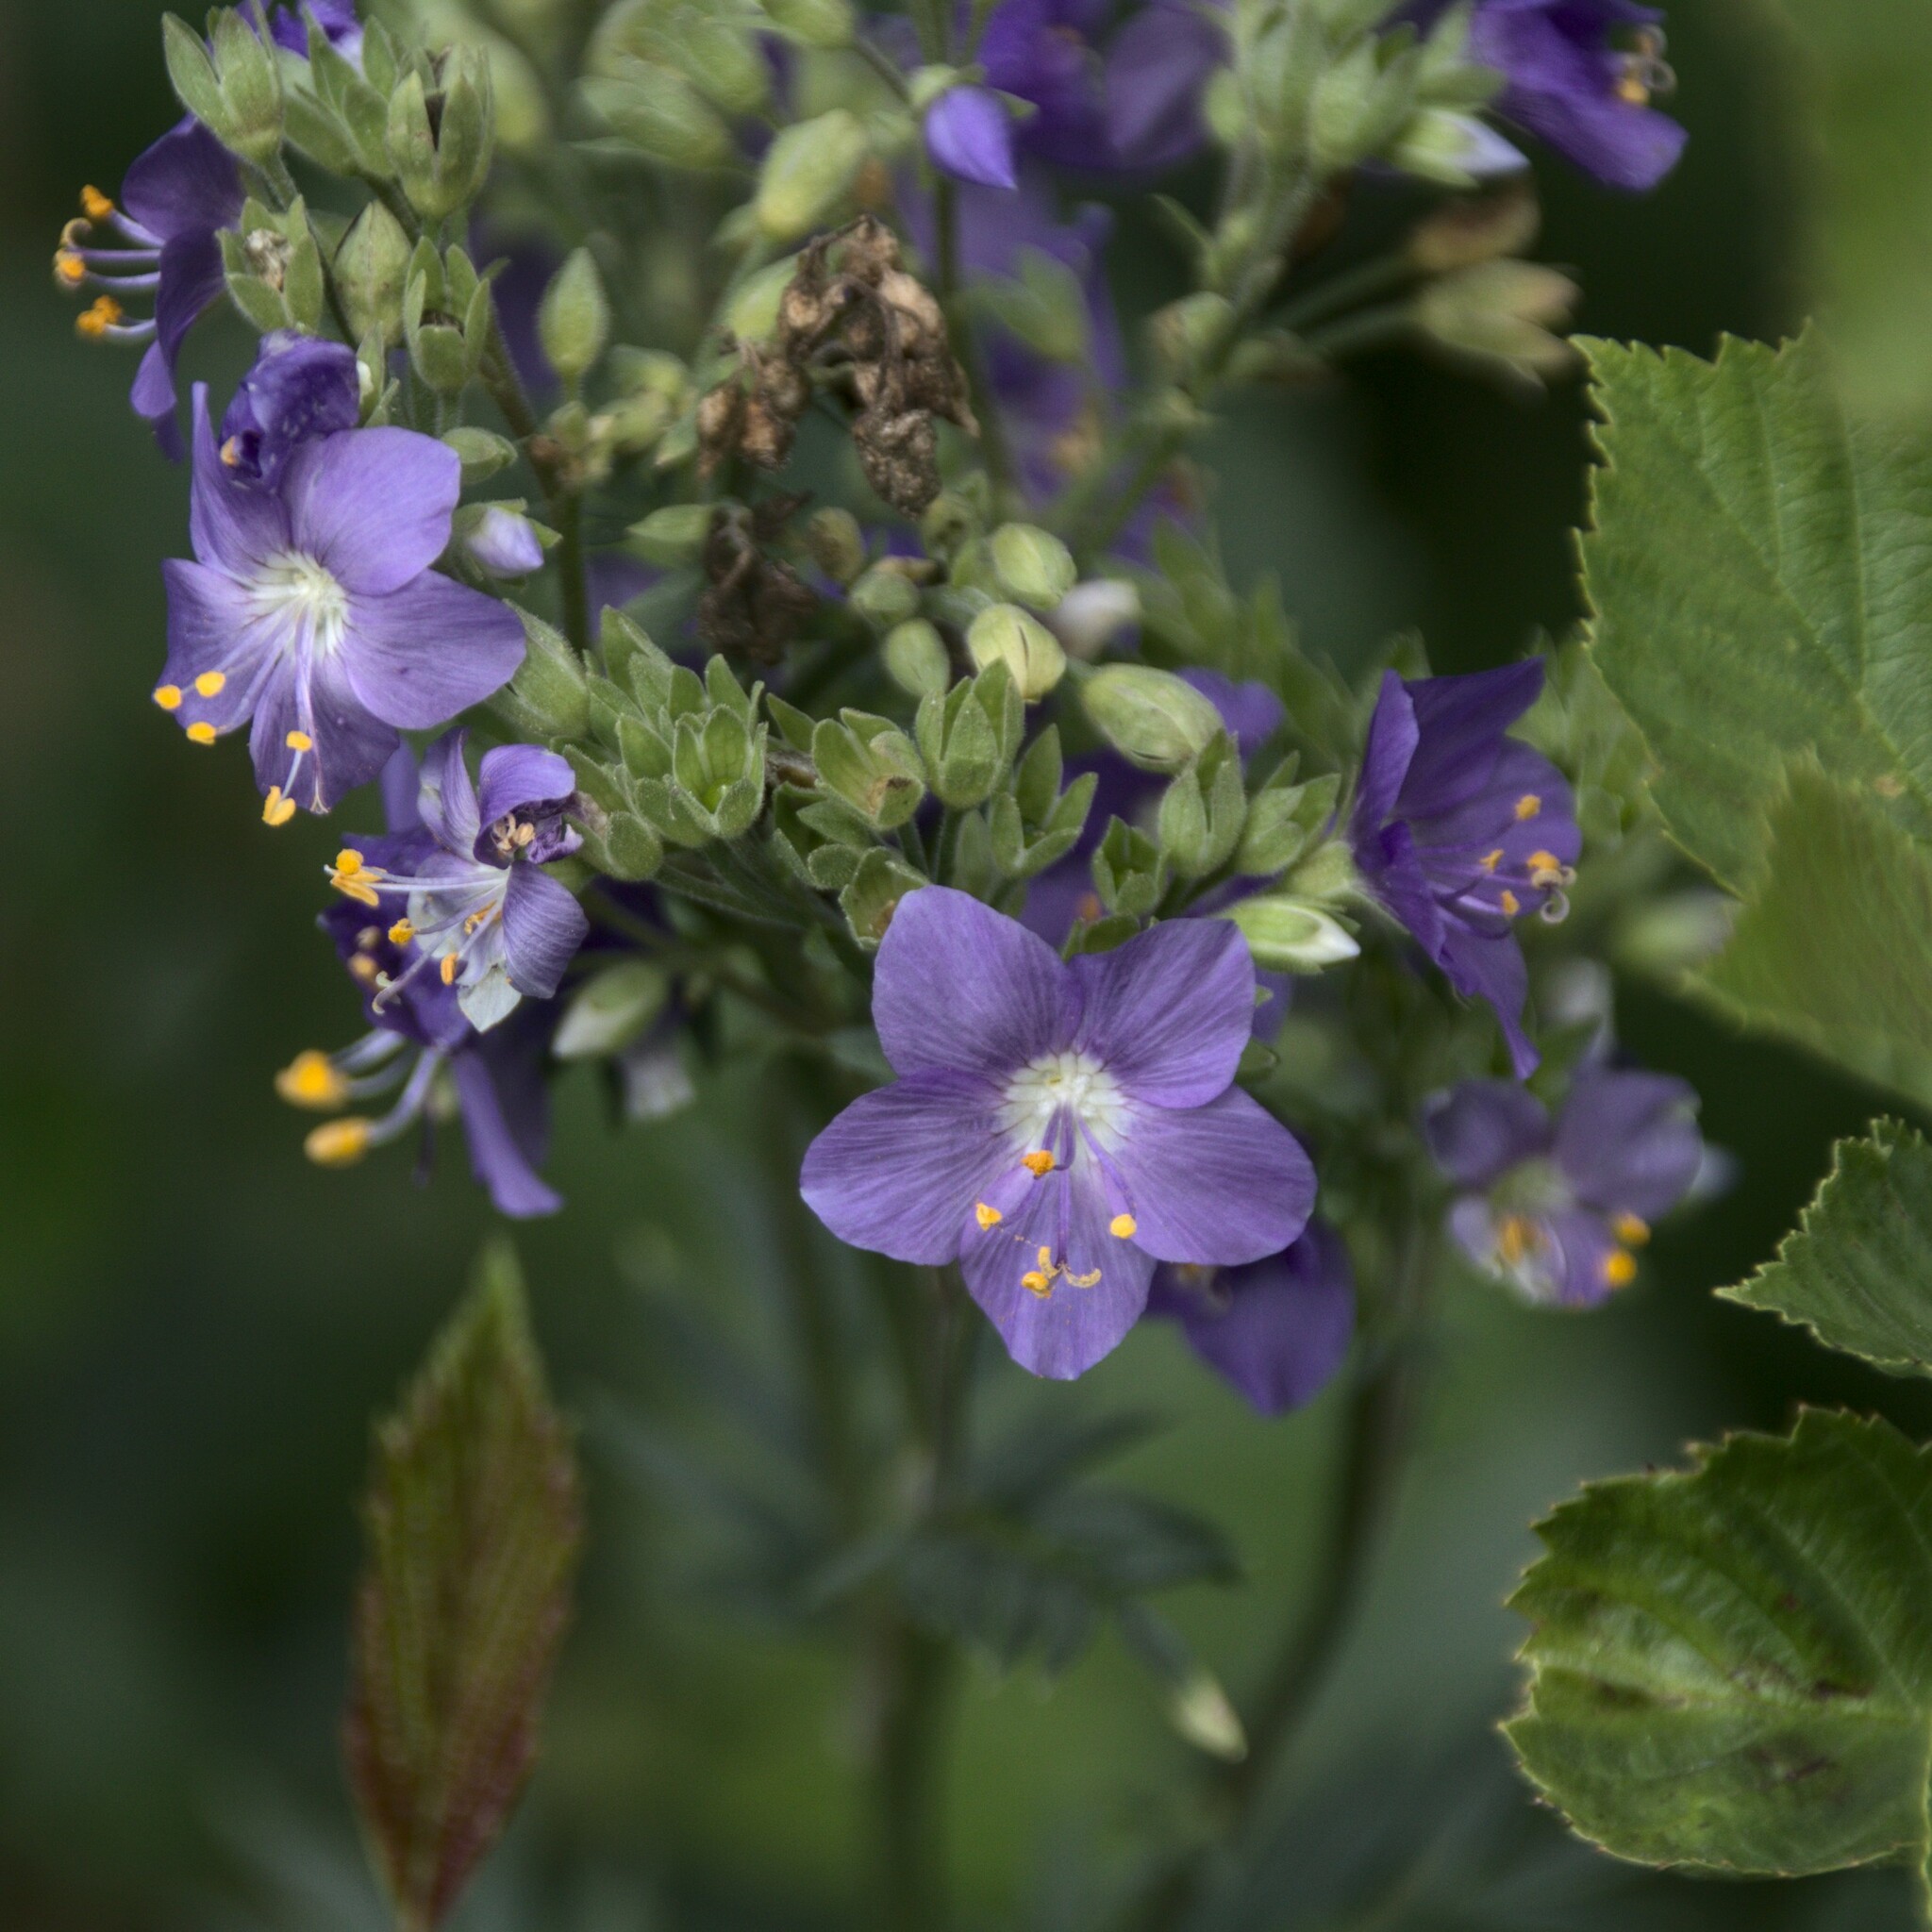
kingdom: Plantae
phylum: Tracheophyta
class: Magnoliopsida
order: Ericales
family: Polemoniaceae
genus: Polemonium
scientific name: Polemonium caeruleum
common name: Jacob's-ladder
